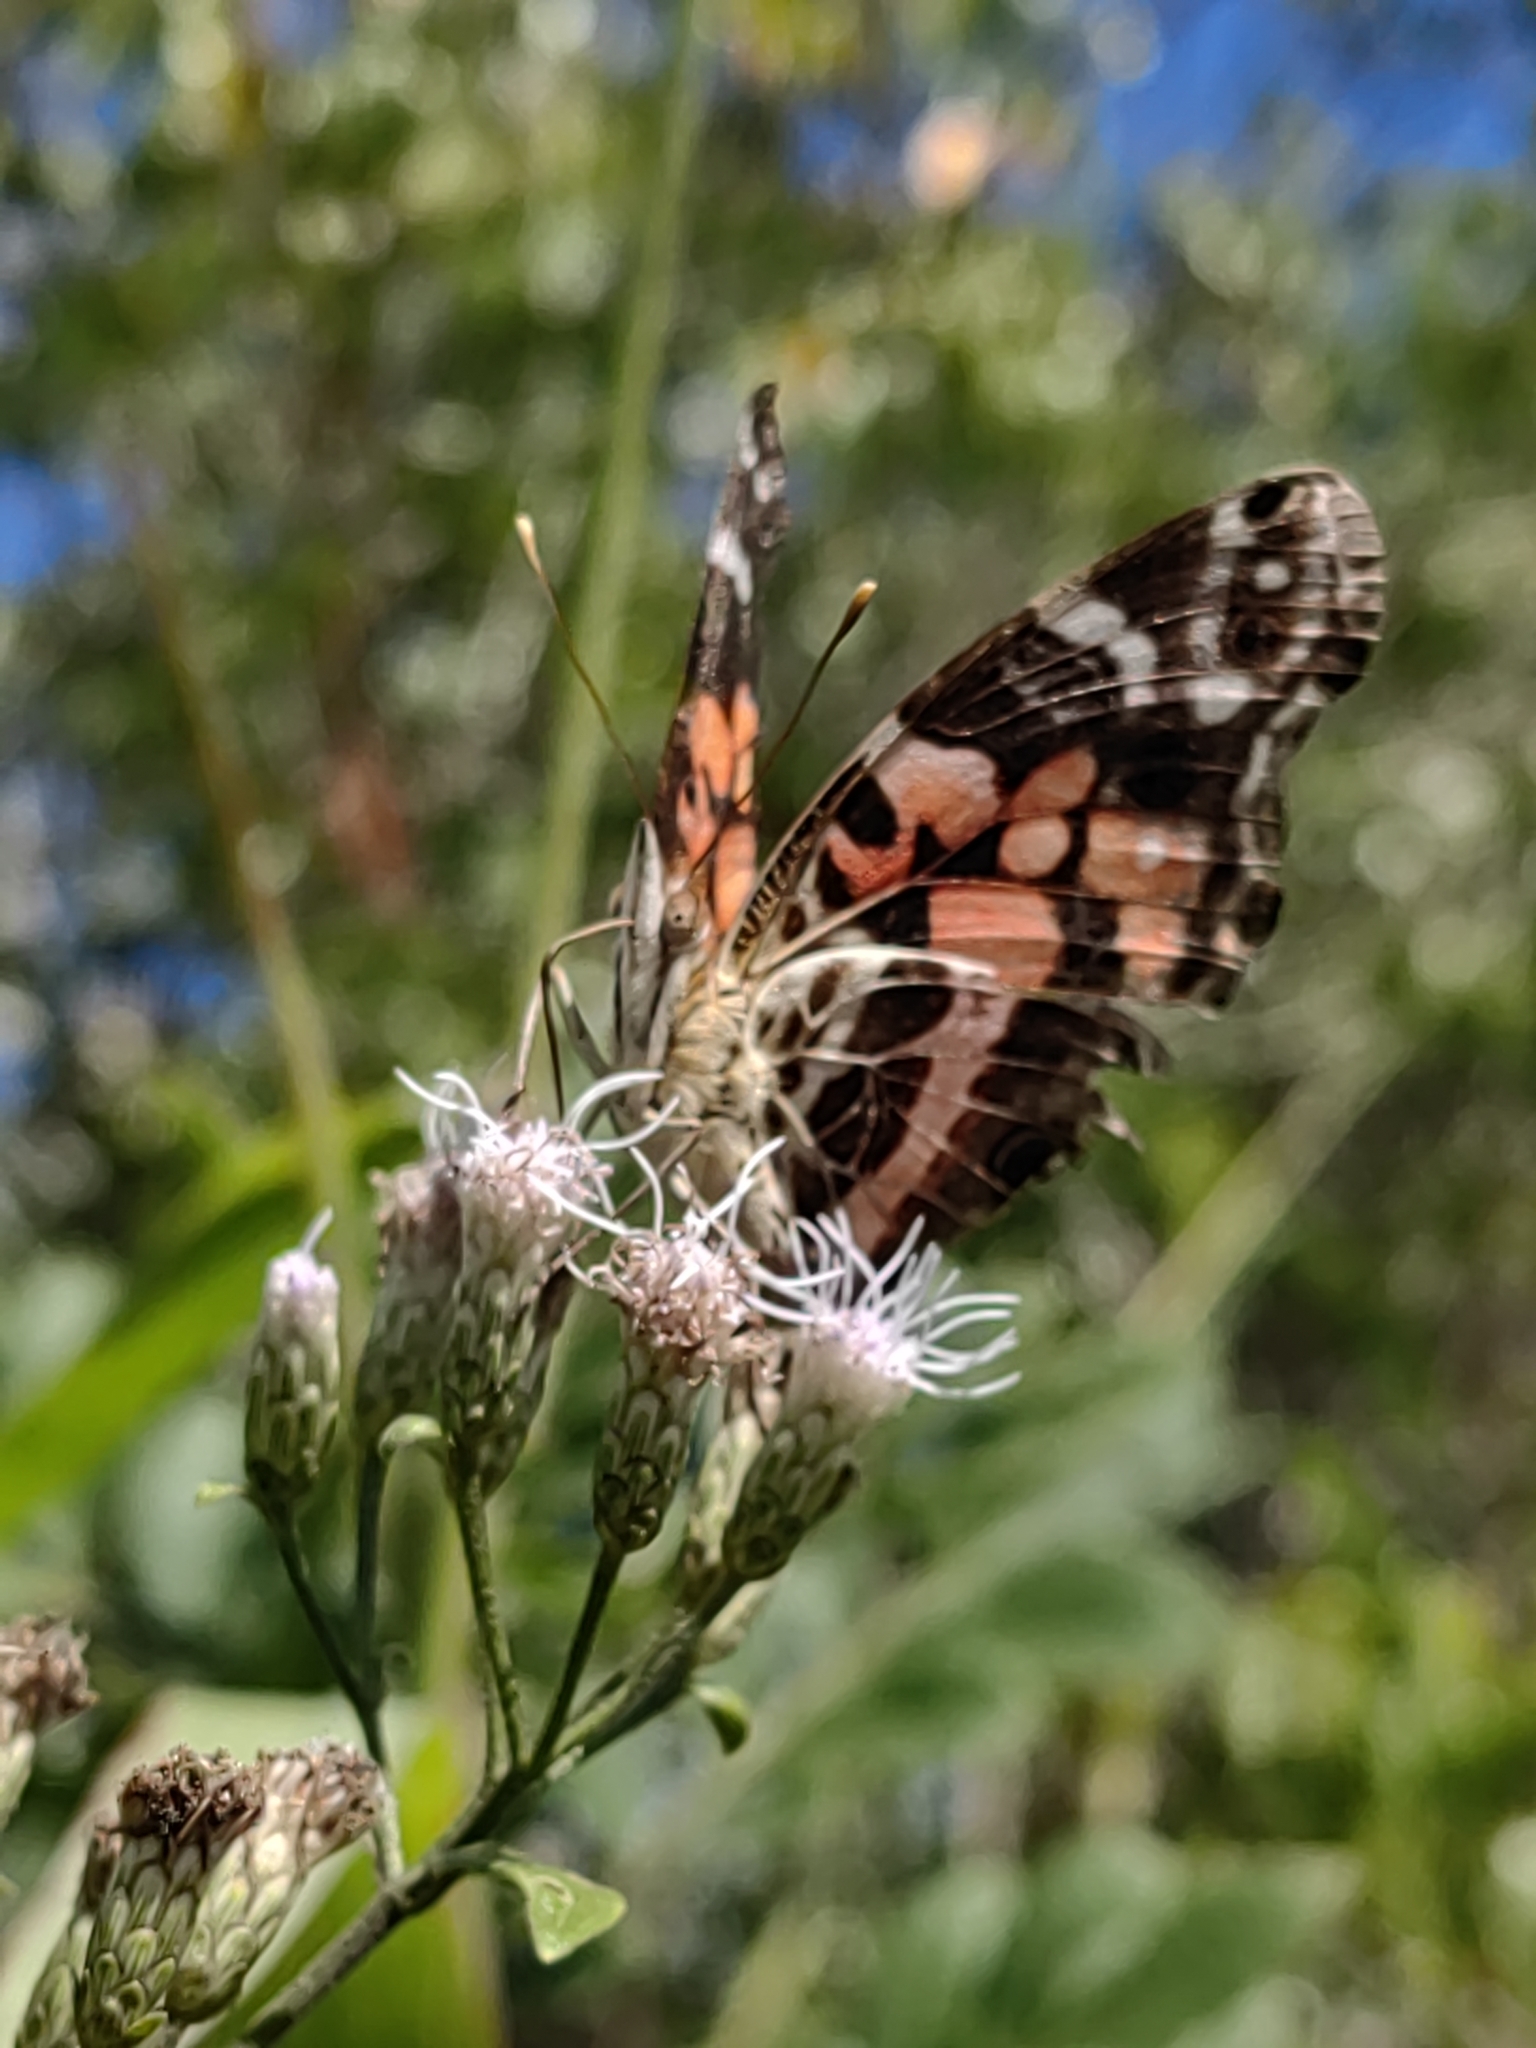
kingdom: Animalia
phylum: Arthropoda
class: Insecta
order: Lepidoptera
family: Nymphalidae
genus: Vanessa
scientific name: Vanessa myrinna
